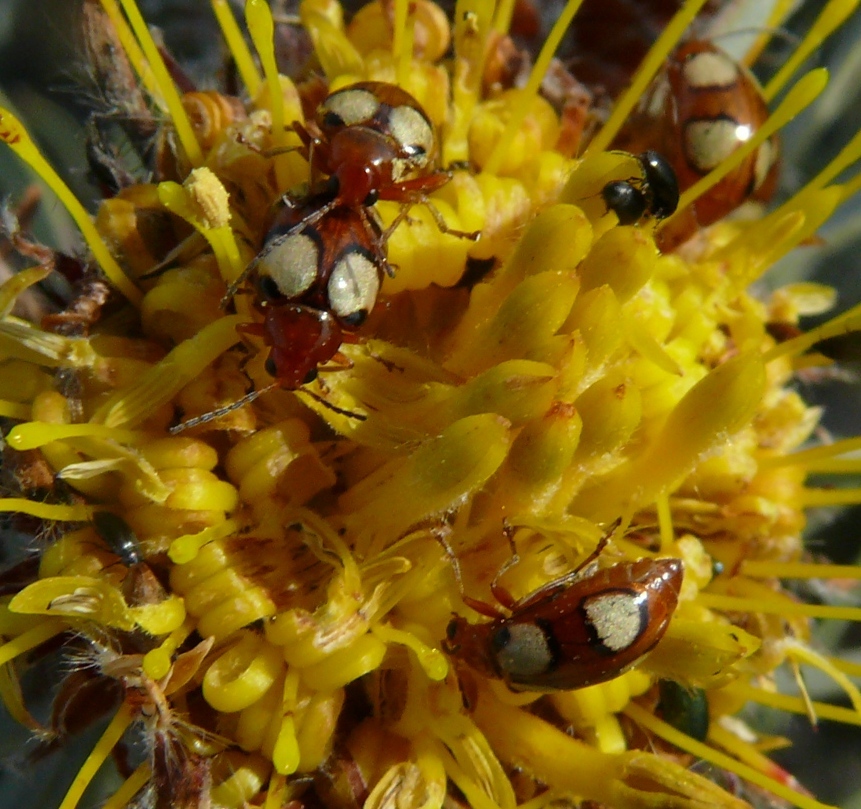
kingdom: Animalia
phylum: Arthropoda
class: Insecta
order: Coleoptera
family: Chrysomelidae
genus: Monolepta
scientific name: Monolepta
